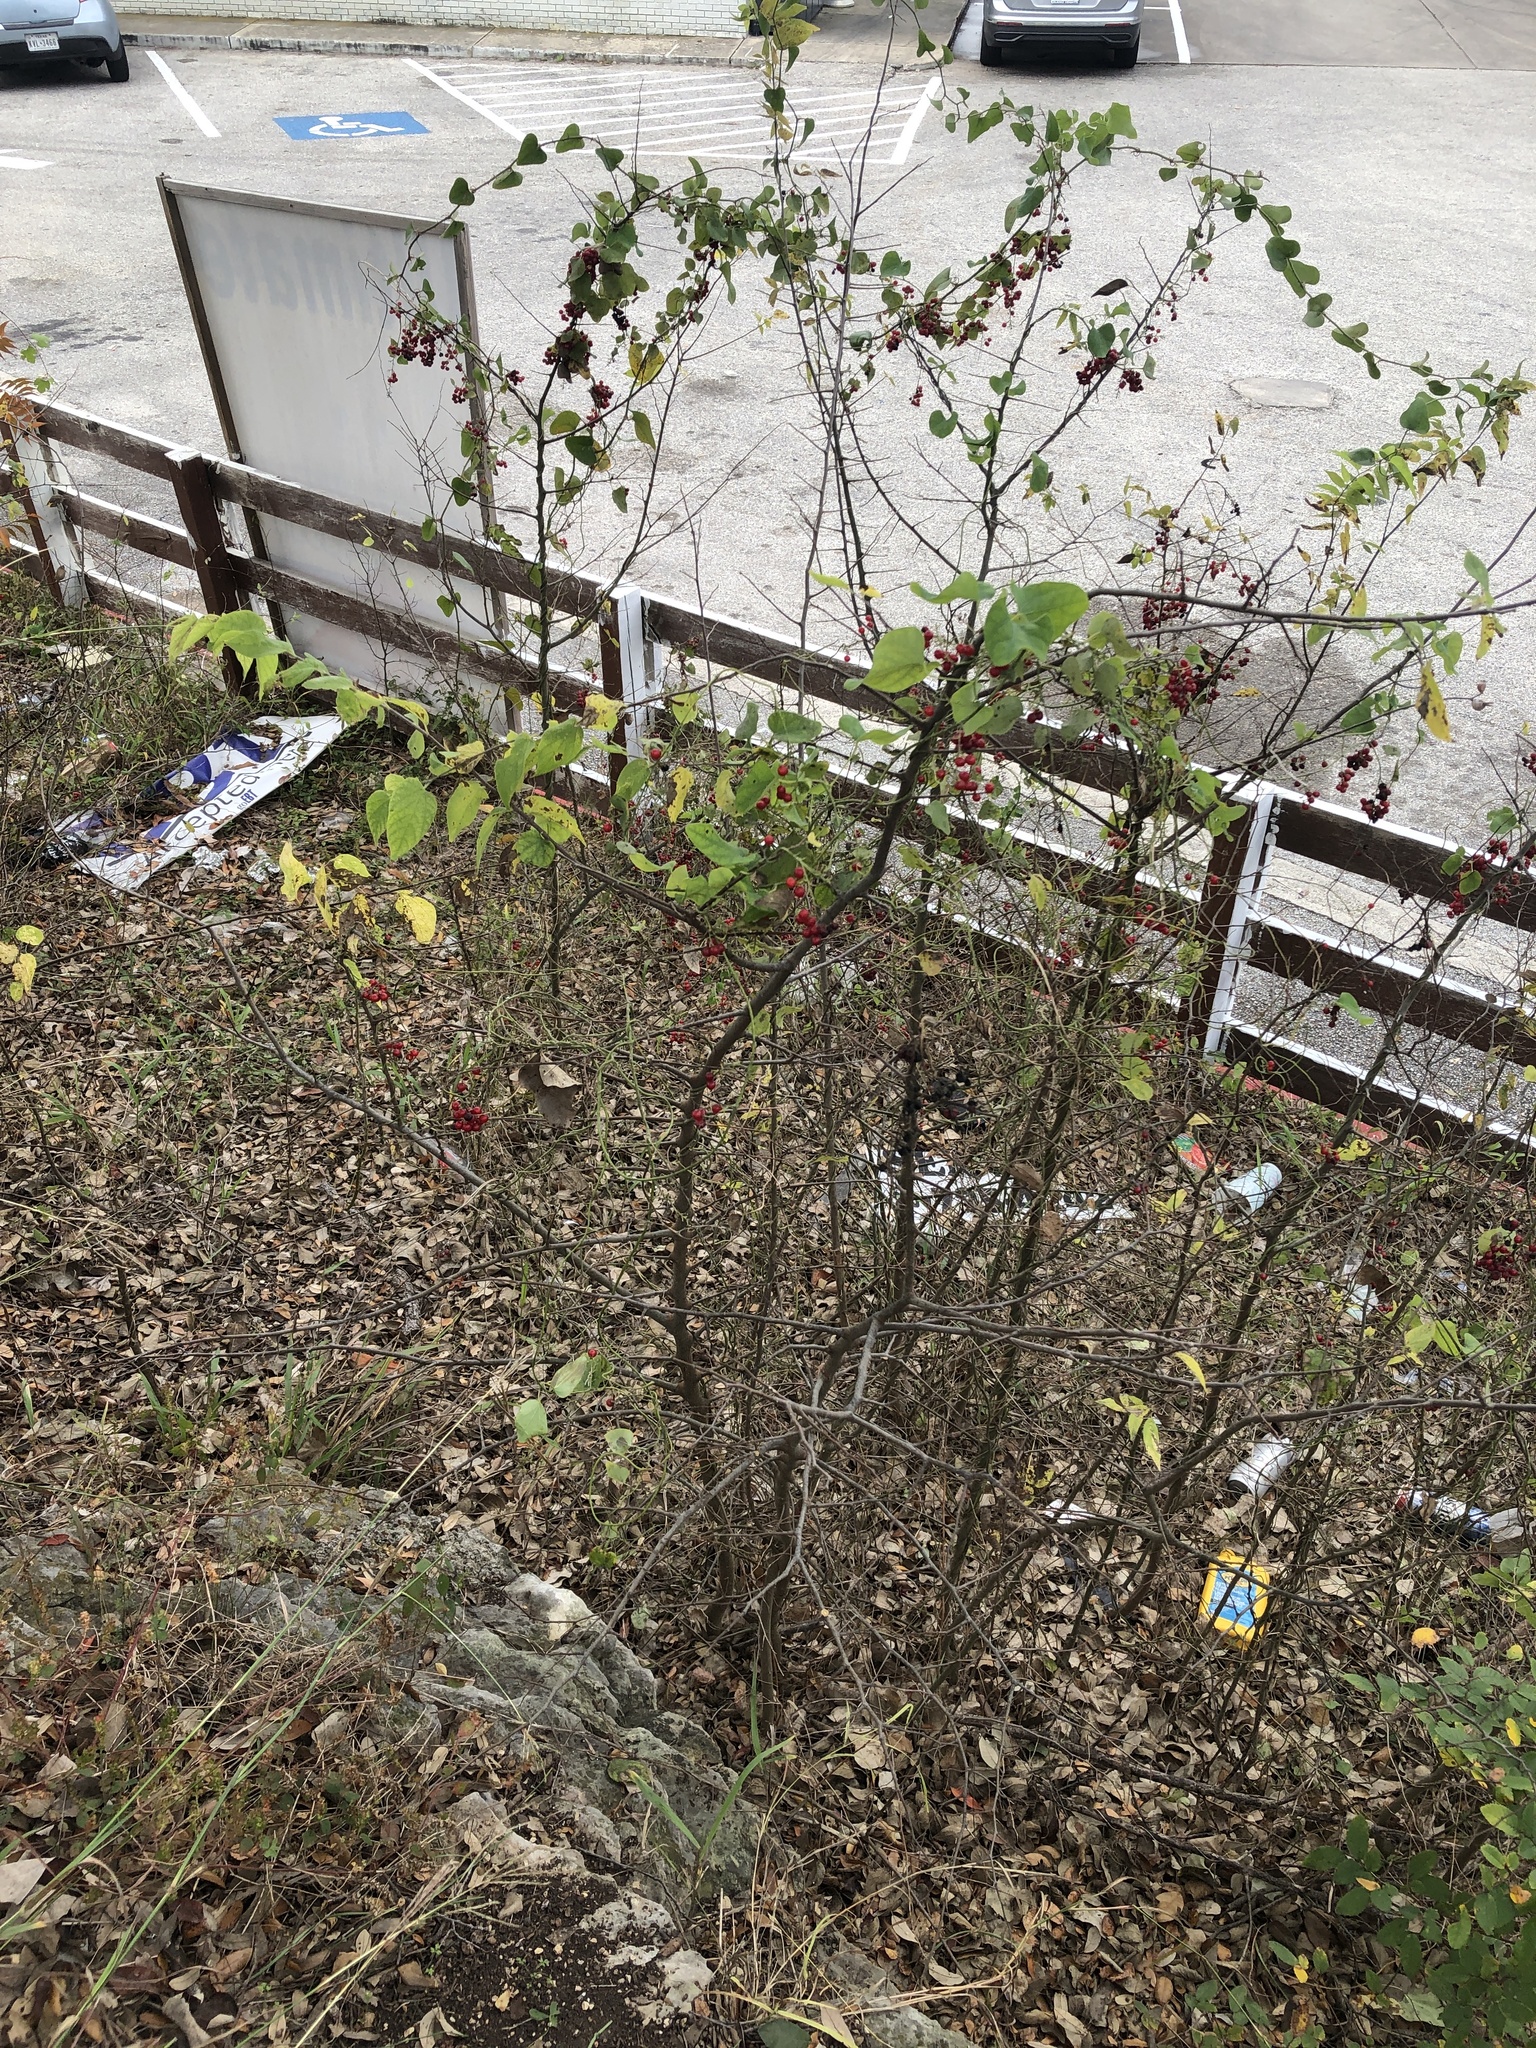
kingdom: Plantae
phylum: Tracheophyta
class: Magnoliopsida
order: Ranunculales
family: Menispermaceae
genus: Cocculus
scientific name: Cocculus carolinus
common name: Carolina moonseed
